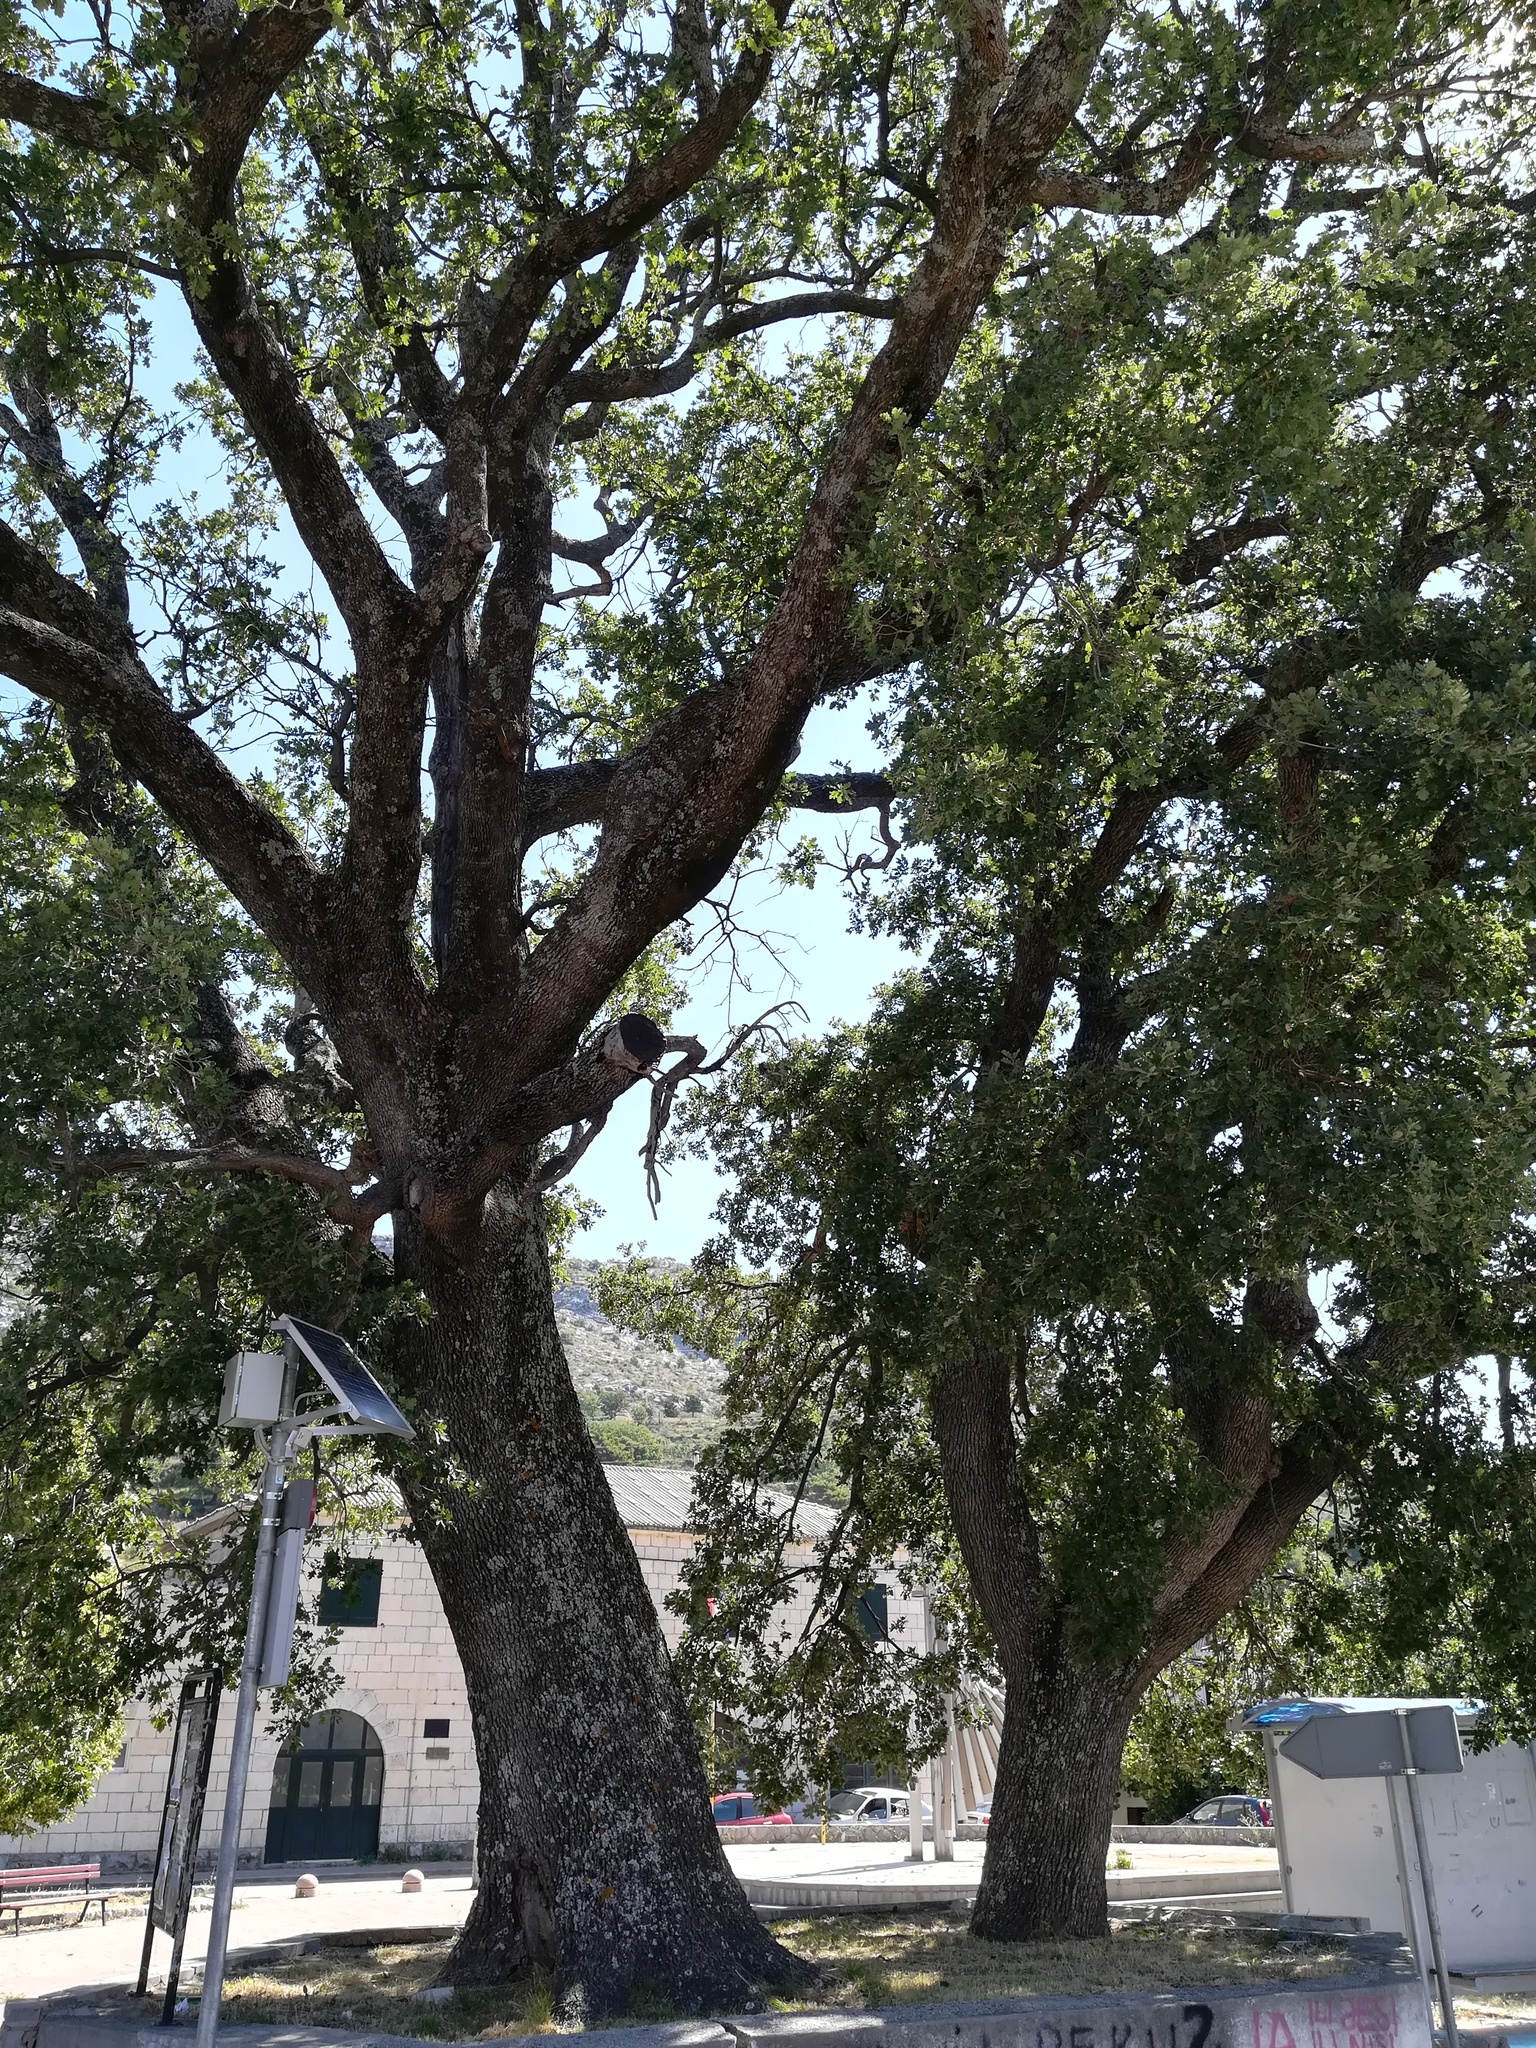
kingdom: Plantae
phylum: Tracheophyta
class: Magnoliopsida
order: Fagales
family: Fagaceae
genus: Quercus
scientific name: Quercus pubescens
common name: Downy oak
